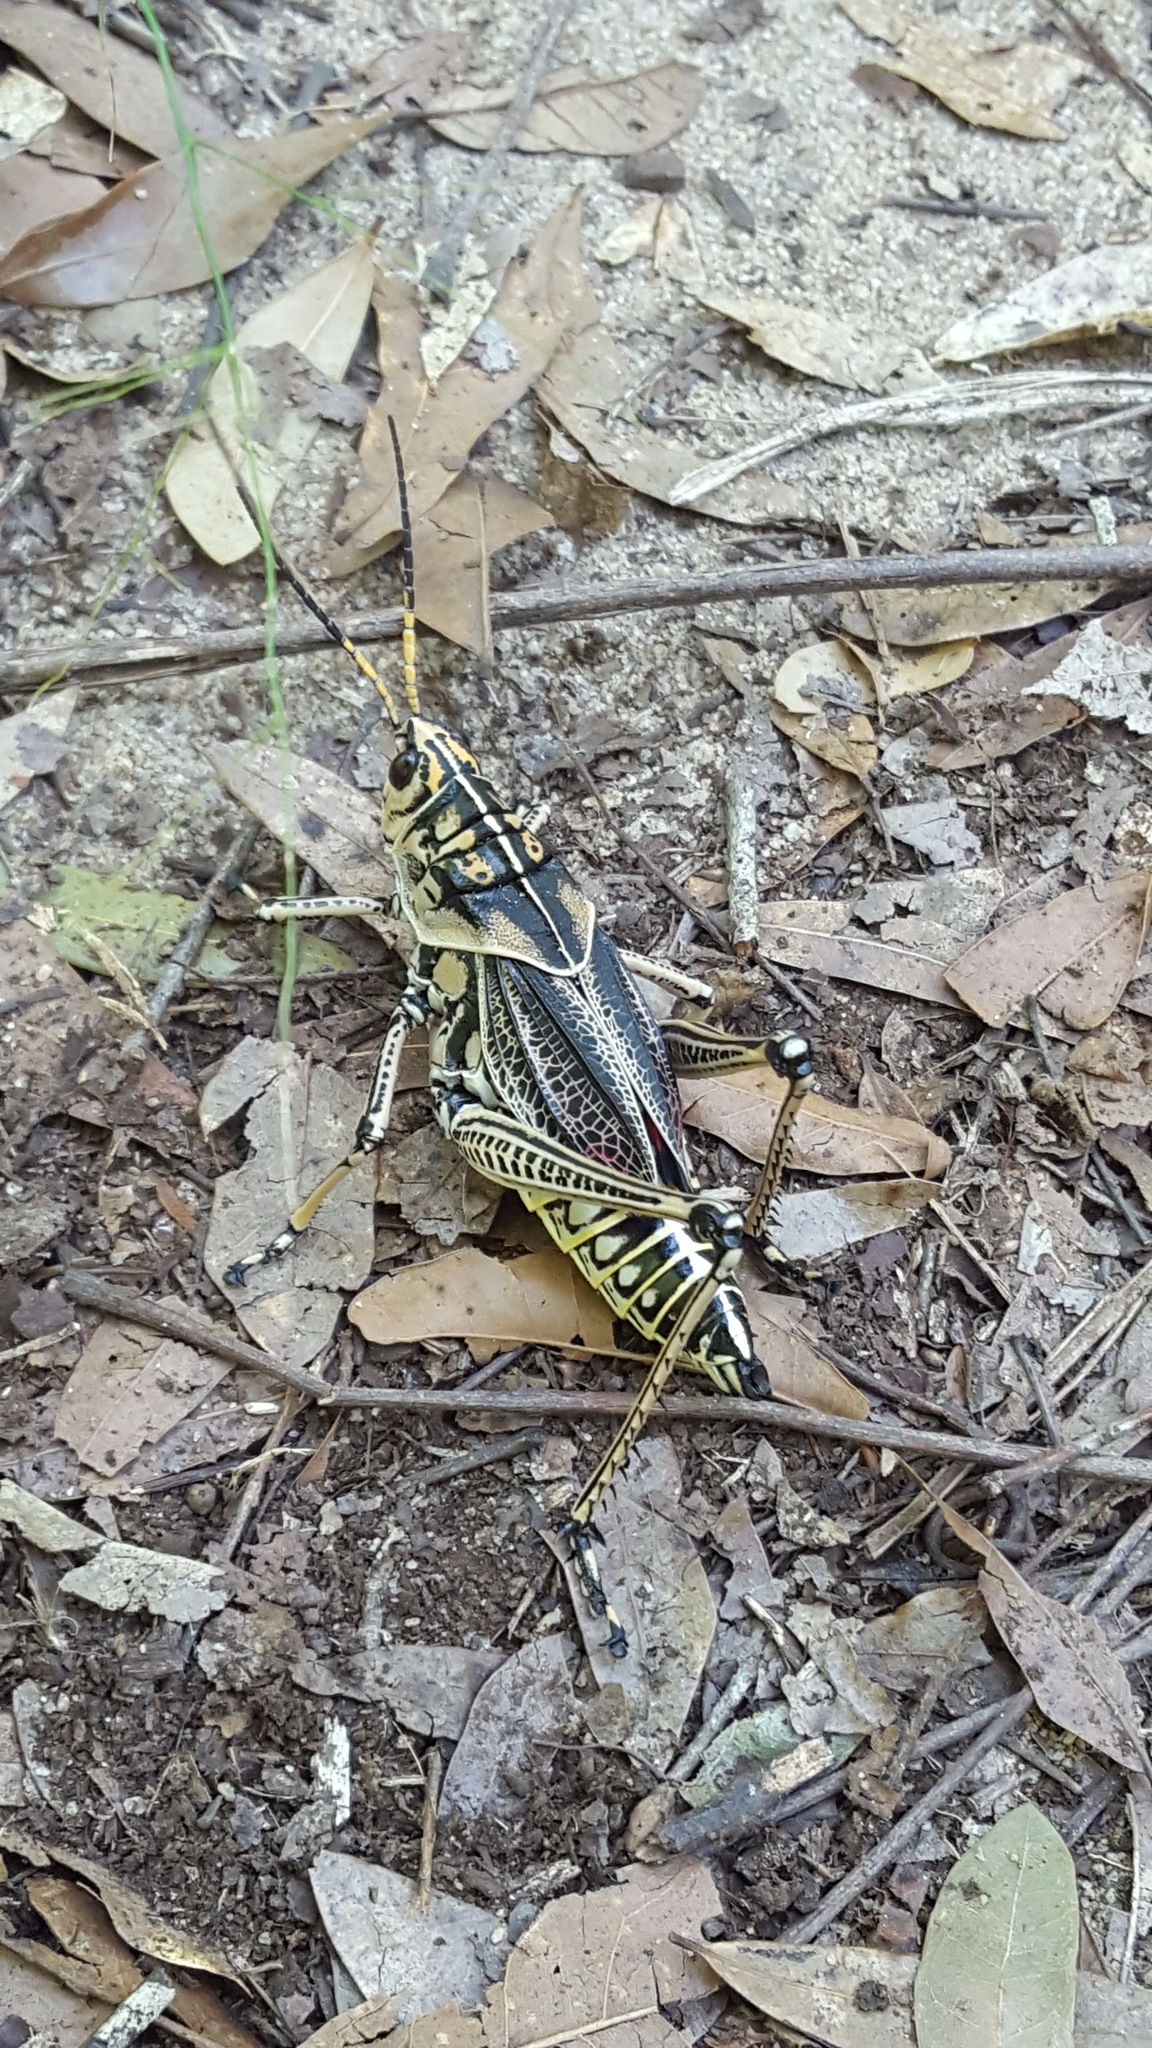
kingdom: Animalia
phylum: Arthropoda
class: Insecta
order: Orthoptera
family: Romaleidae
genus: Romalea
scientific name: Romalea microptera
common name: Eastern lubber grasshopper
